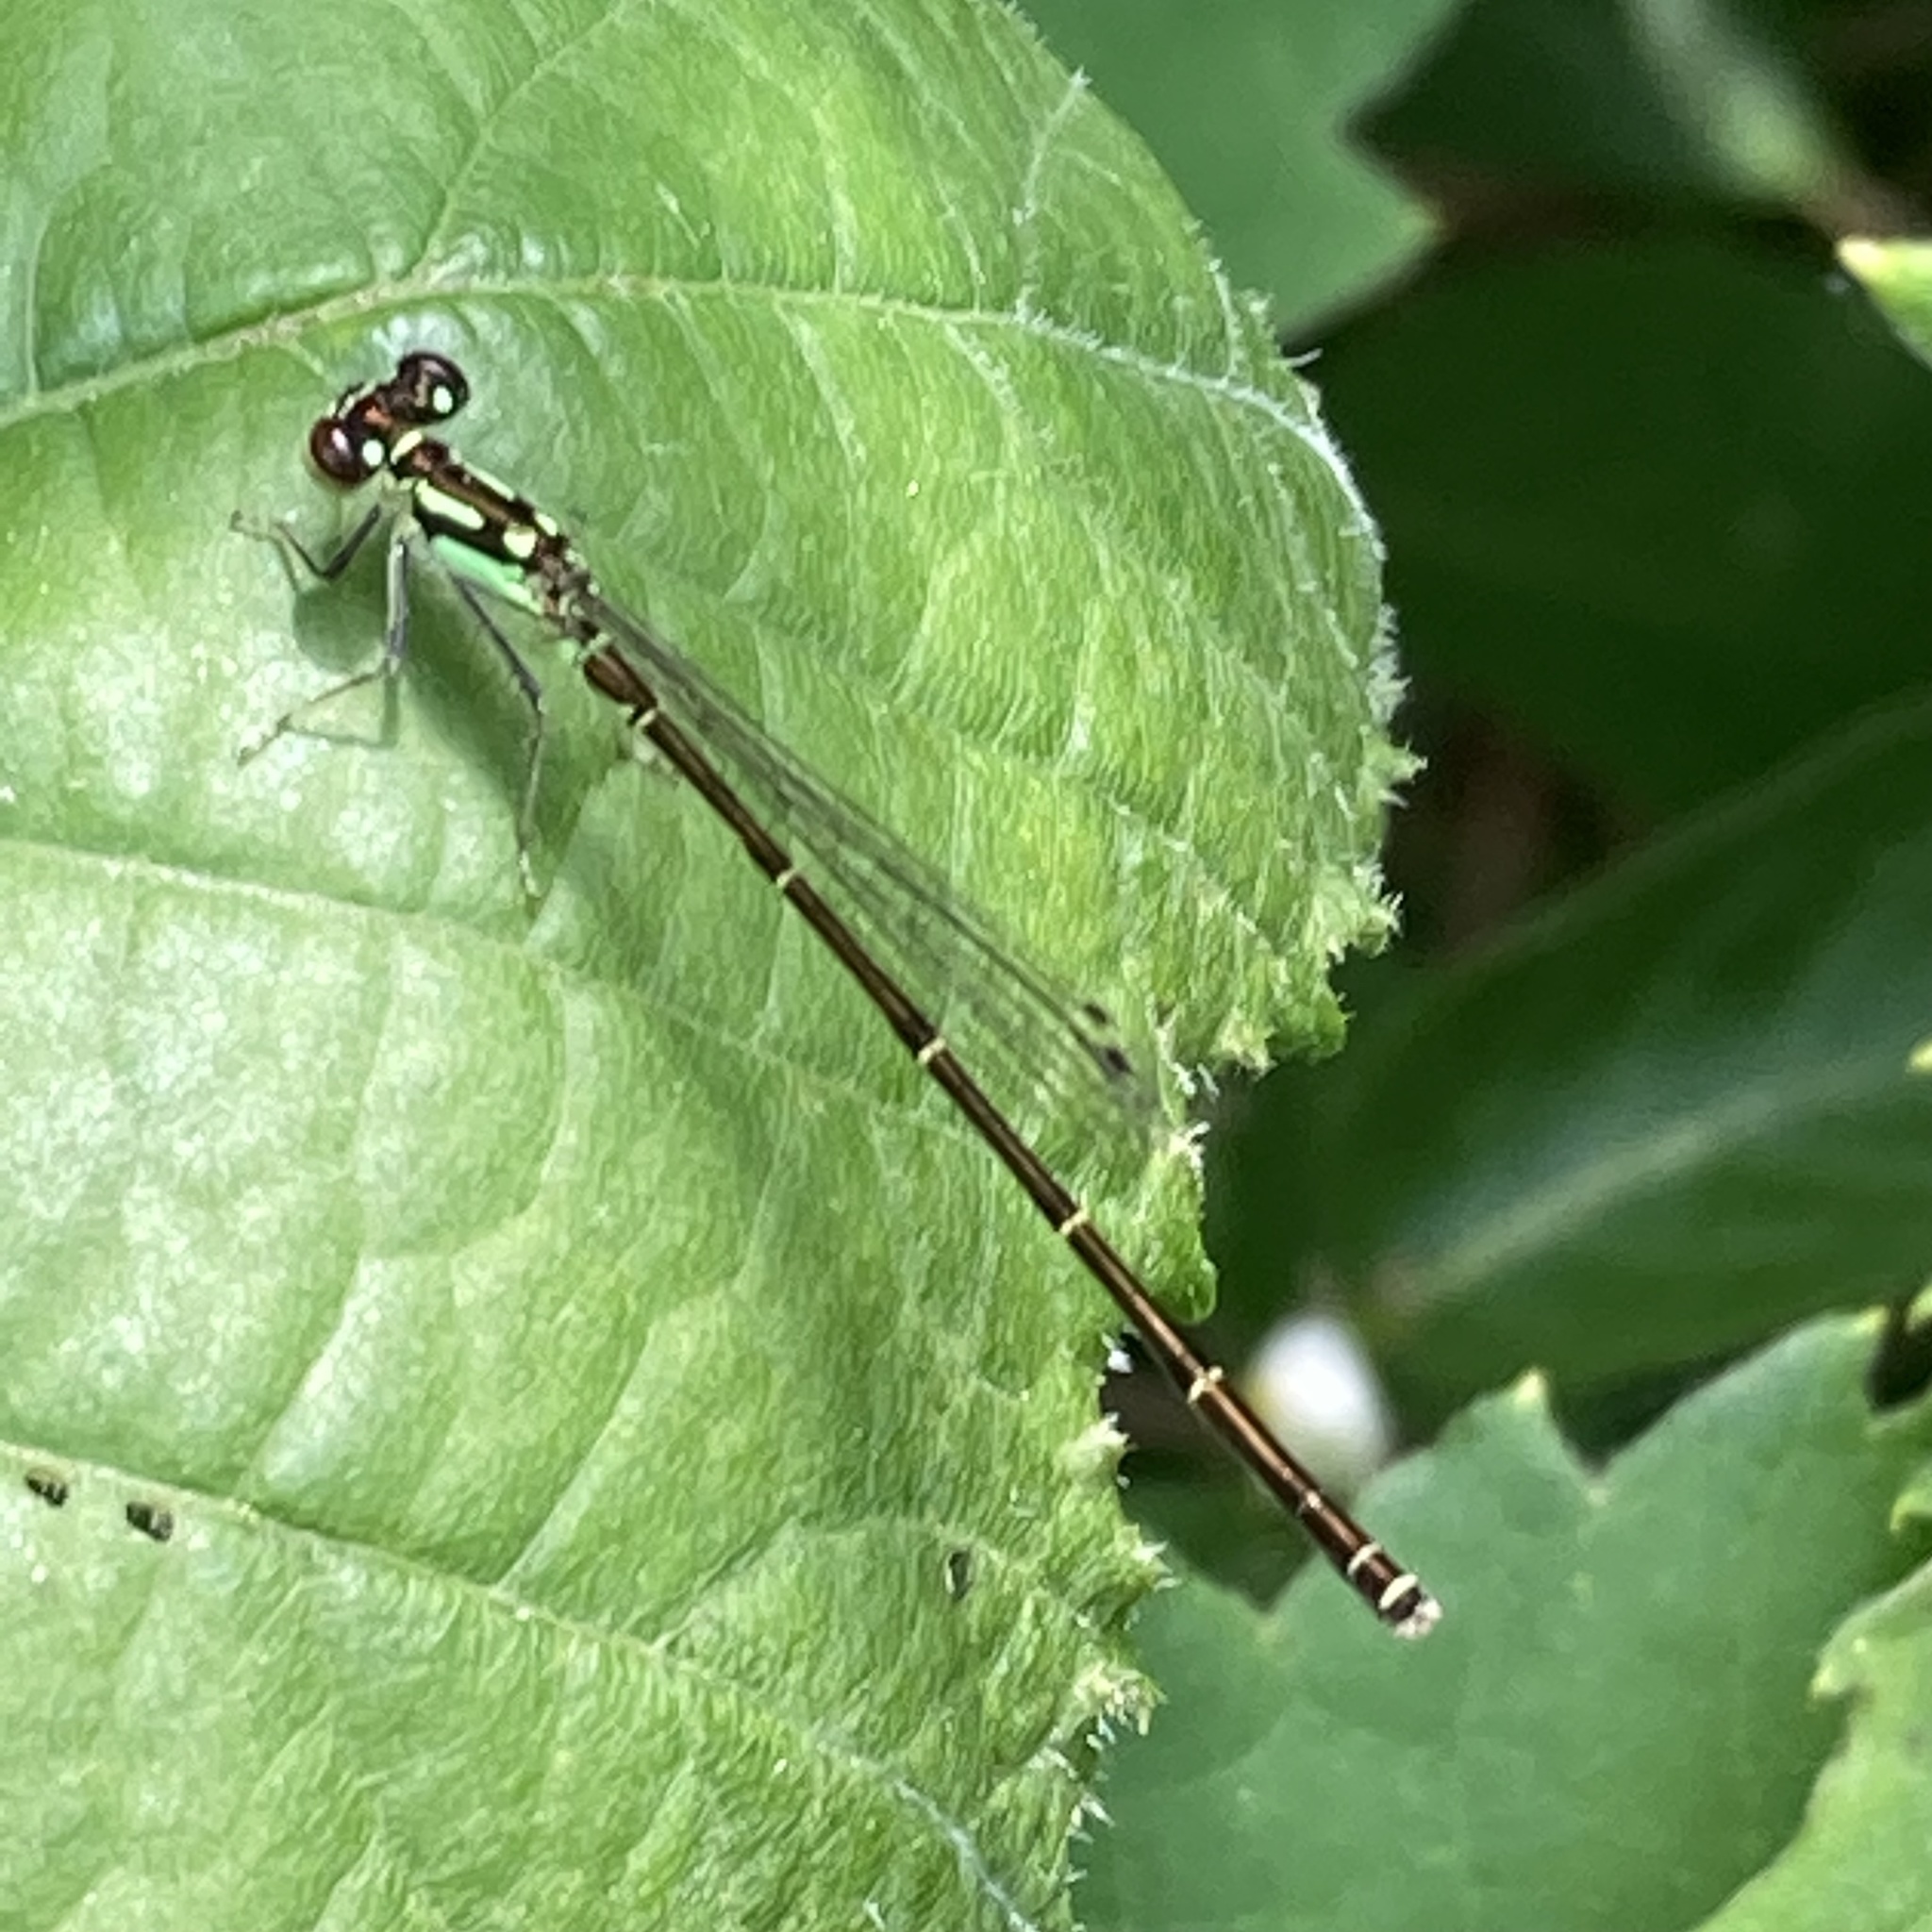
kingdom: Animalia
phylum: Arthropoda
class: Insecta
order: Odonata
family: Coenagrionidae
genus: Ischnura
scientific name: Ischnura posita
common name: Fragile forktail
